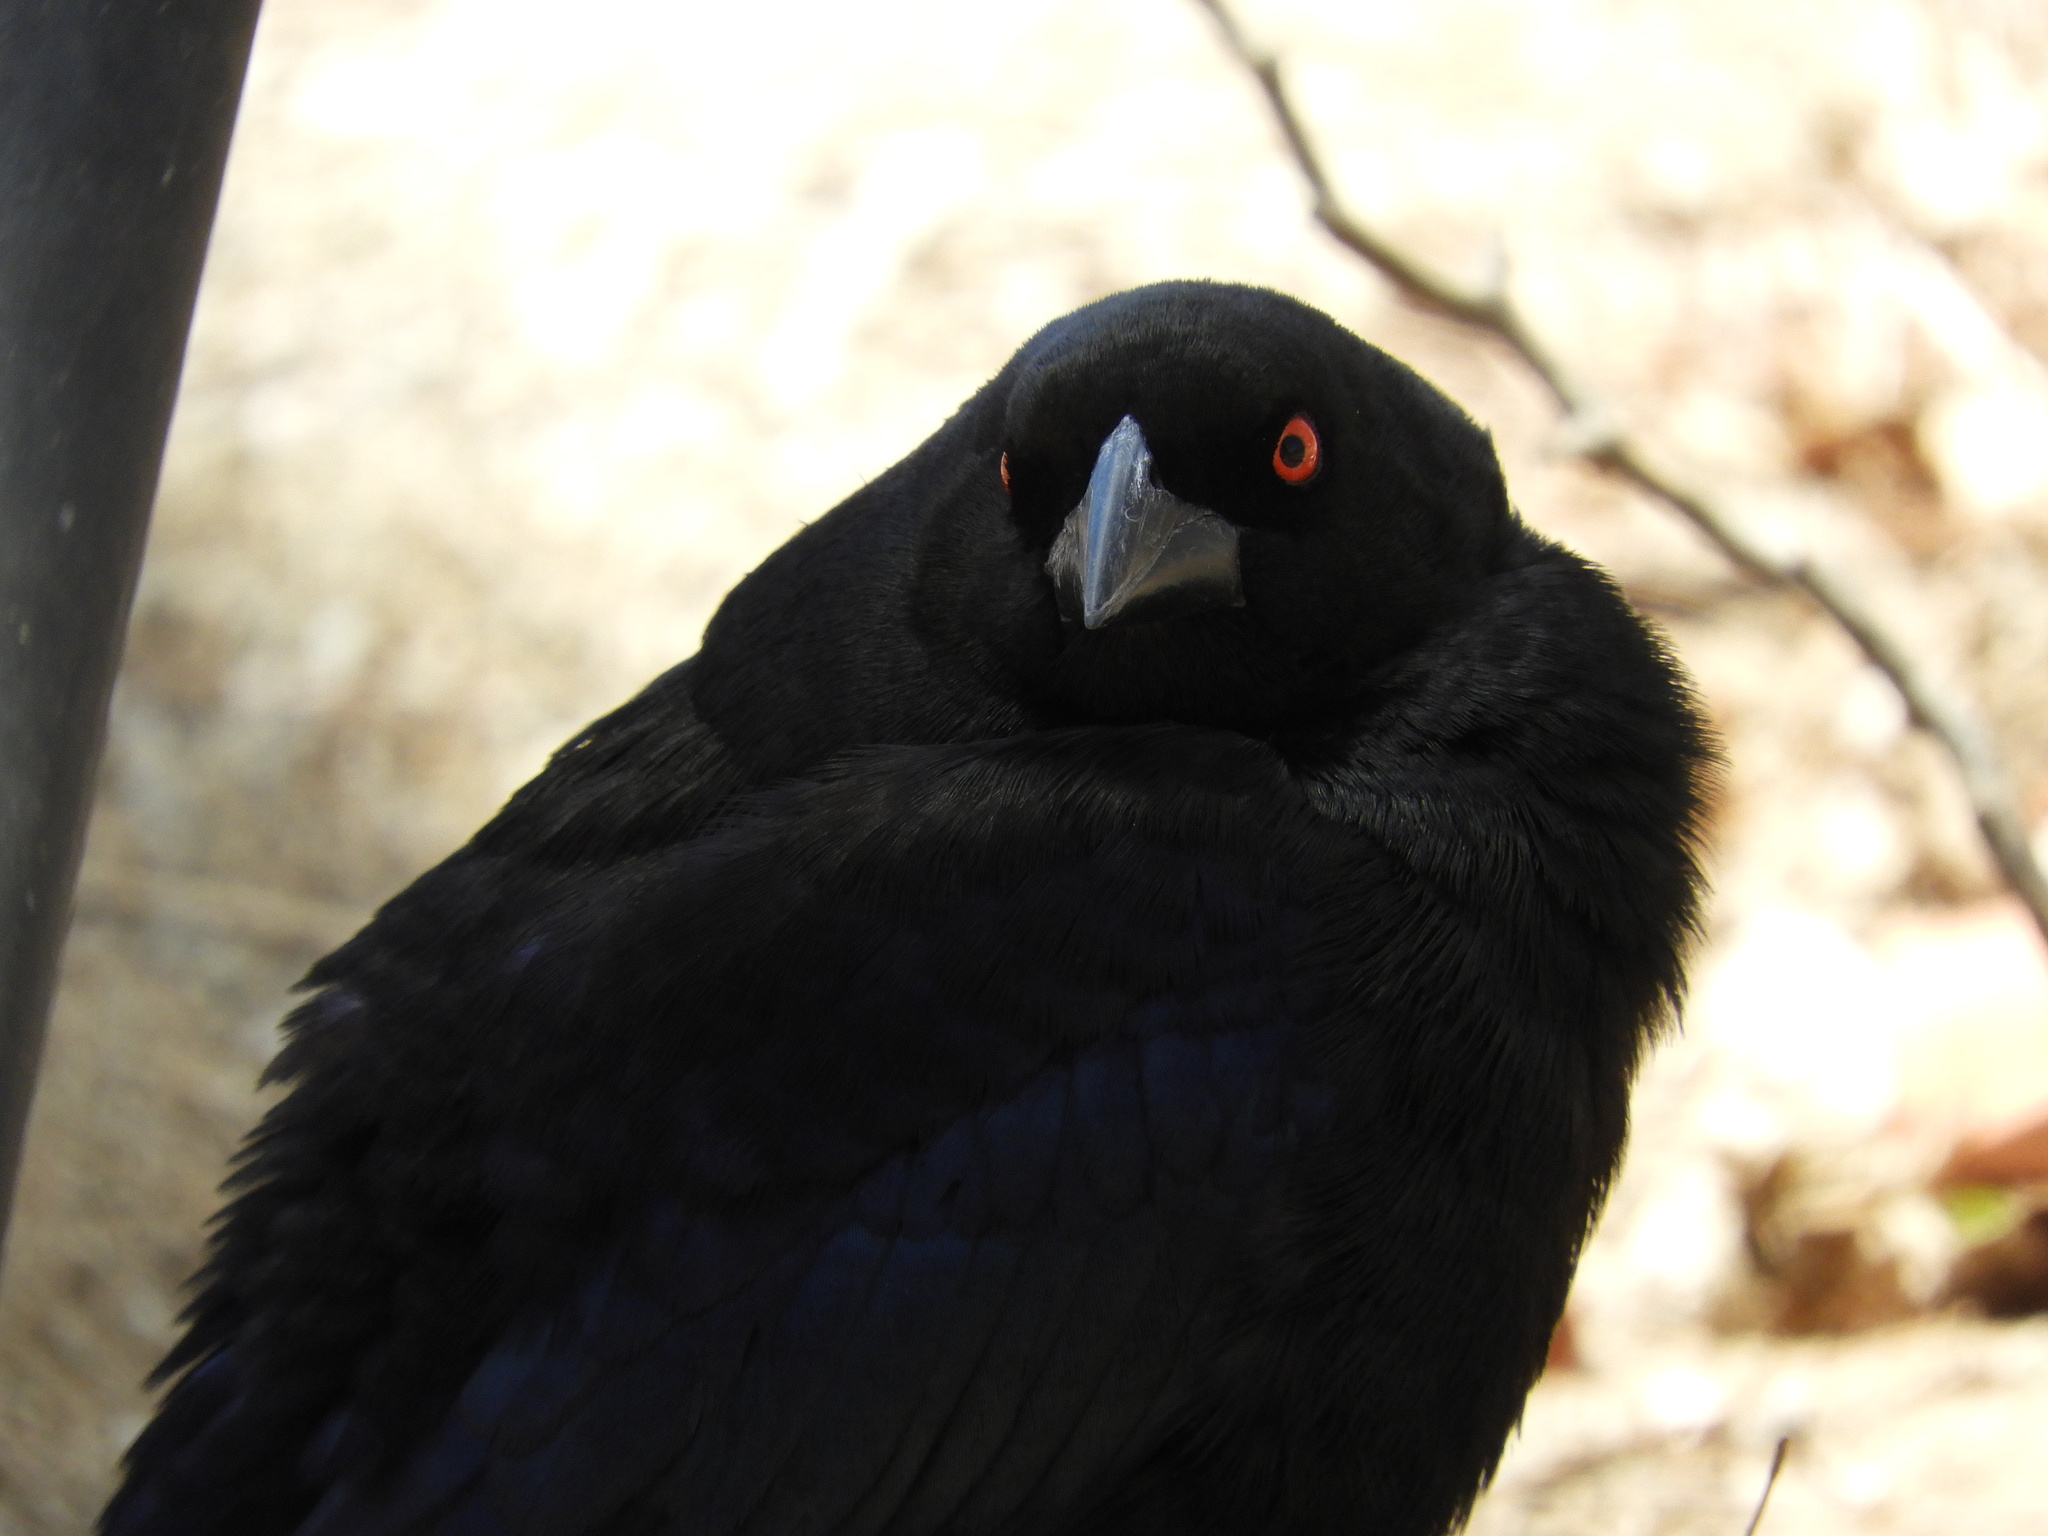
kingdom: Animalia
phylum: Chordata
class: Aves
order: Passeriformes
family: Icteridae
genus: Molothrus
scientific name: Molothrus aeneus
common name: Bronzed cowbird
